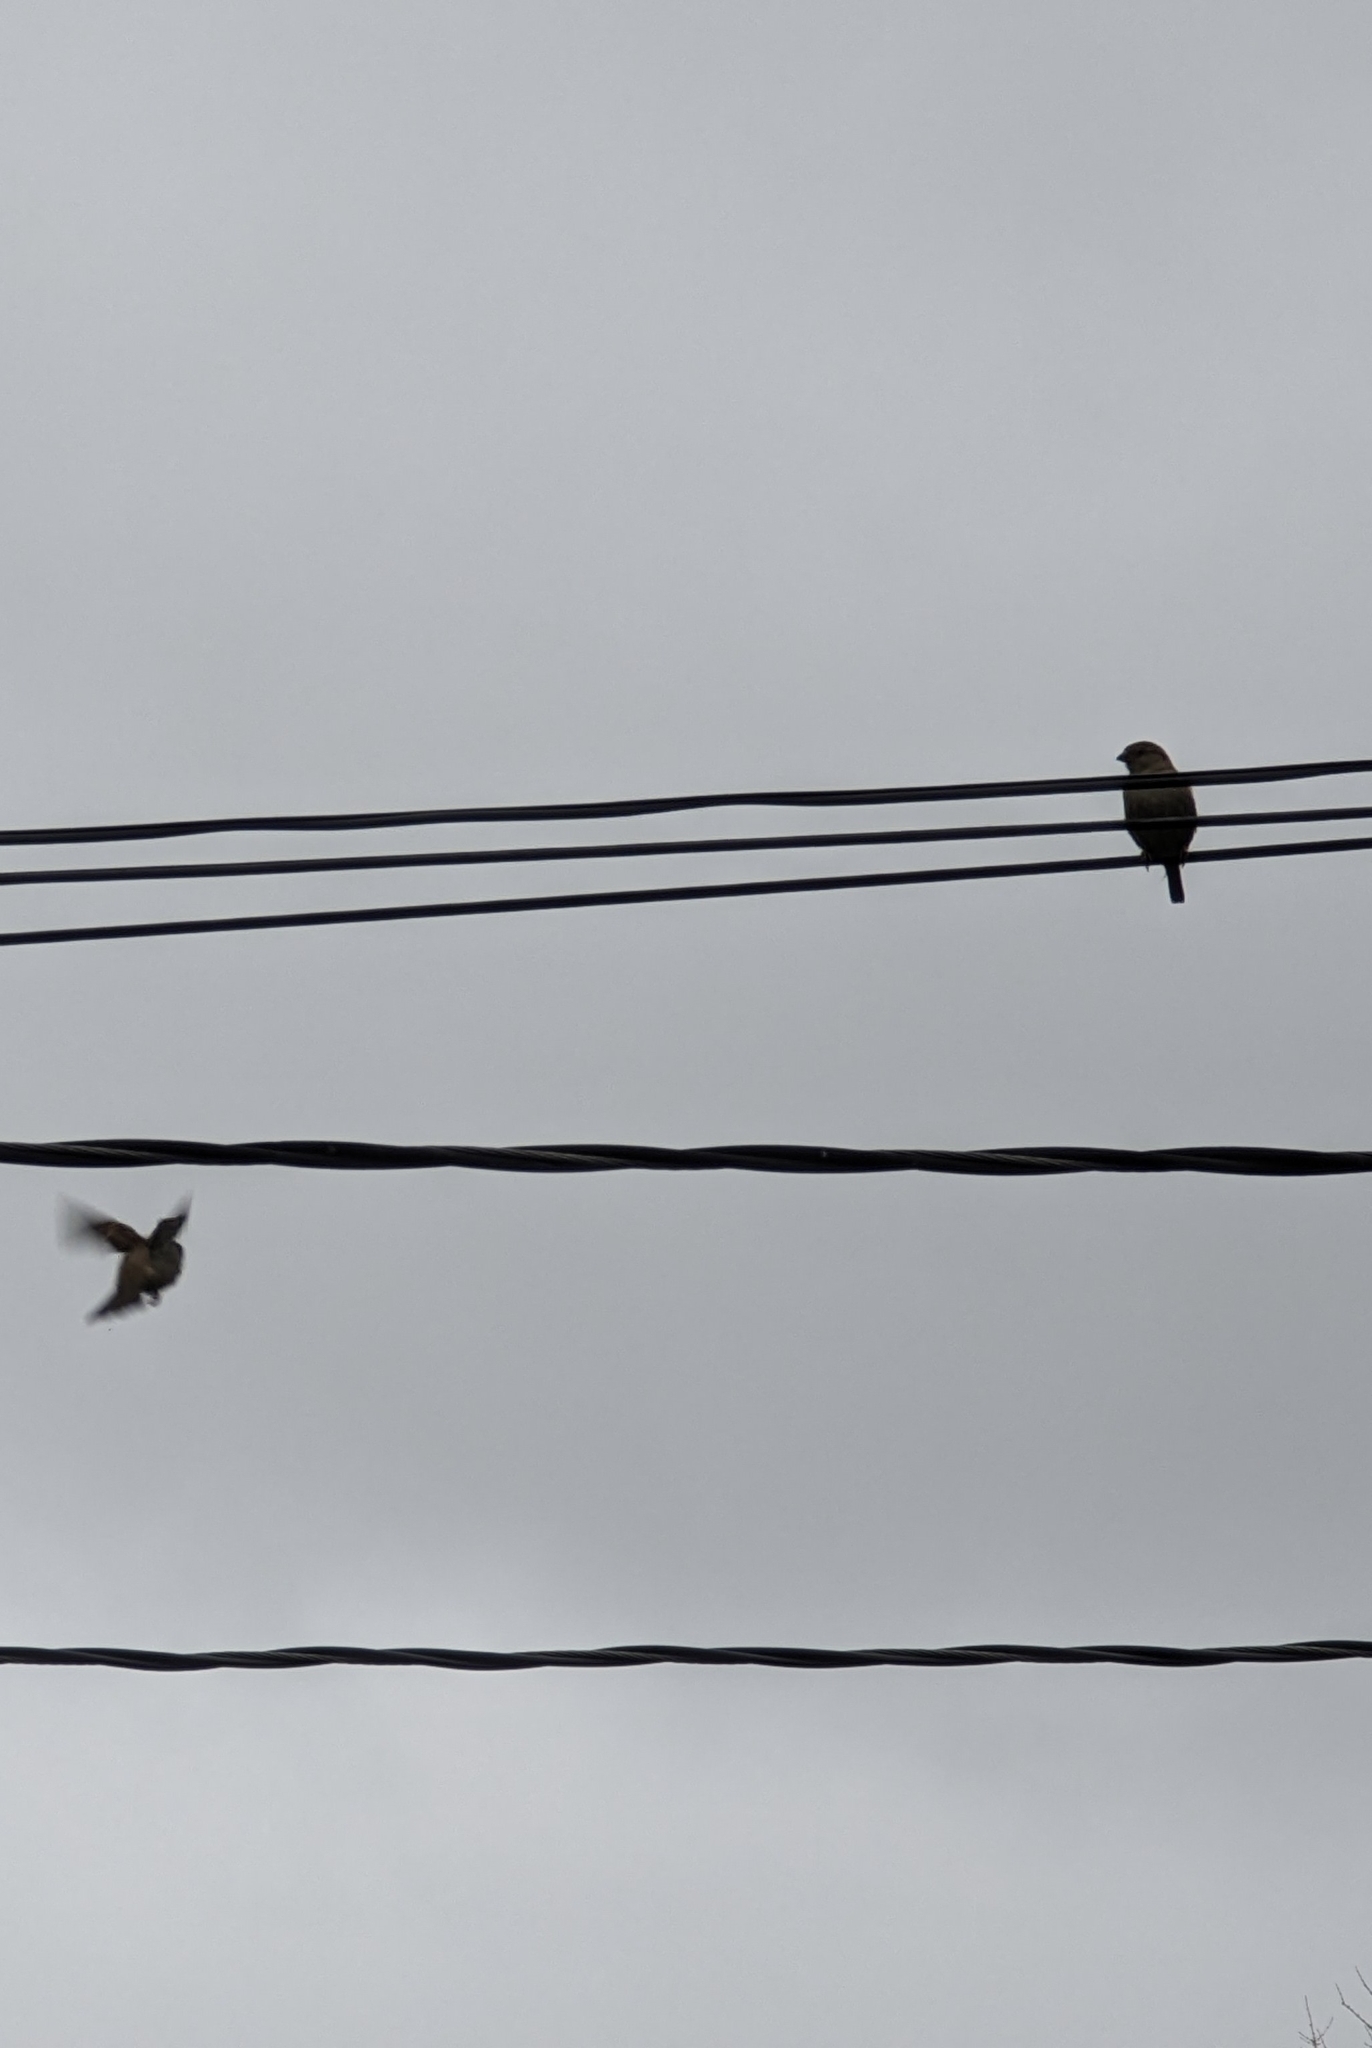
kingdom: Animalia
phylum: Chordata
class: Aves
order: Passeriformes
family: Passeridae
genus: Passer
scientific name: Passer domesticus
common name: House sparrow
